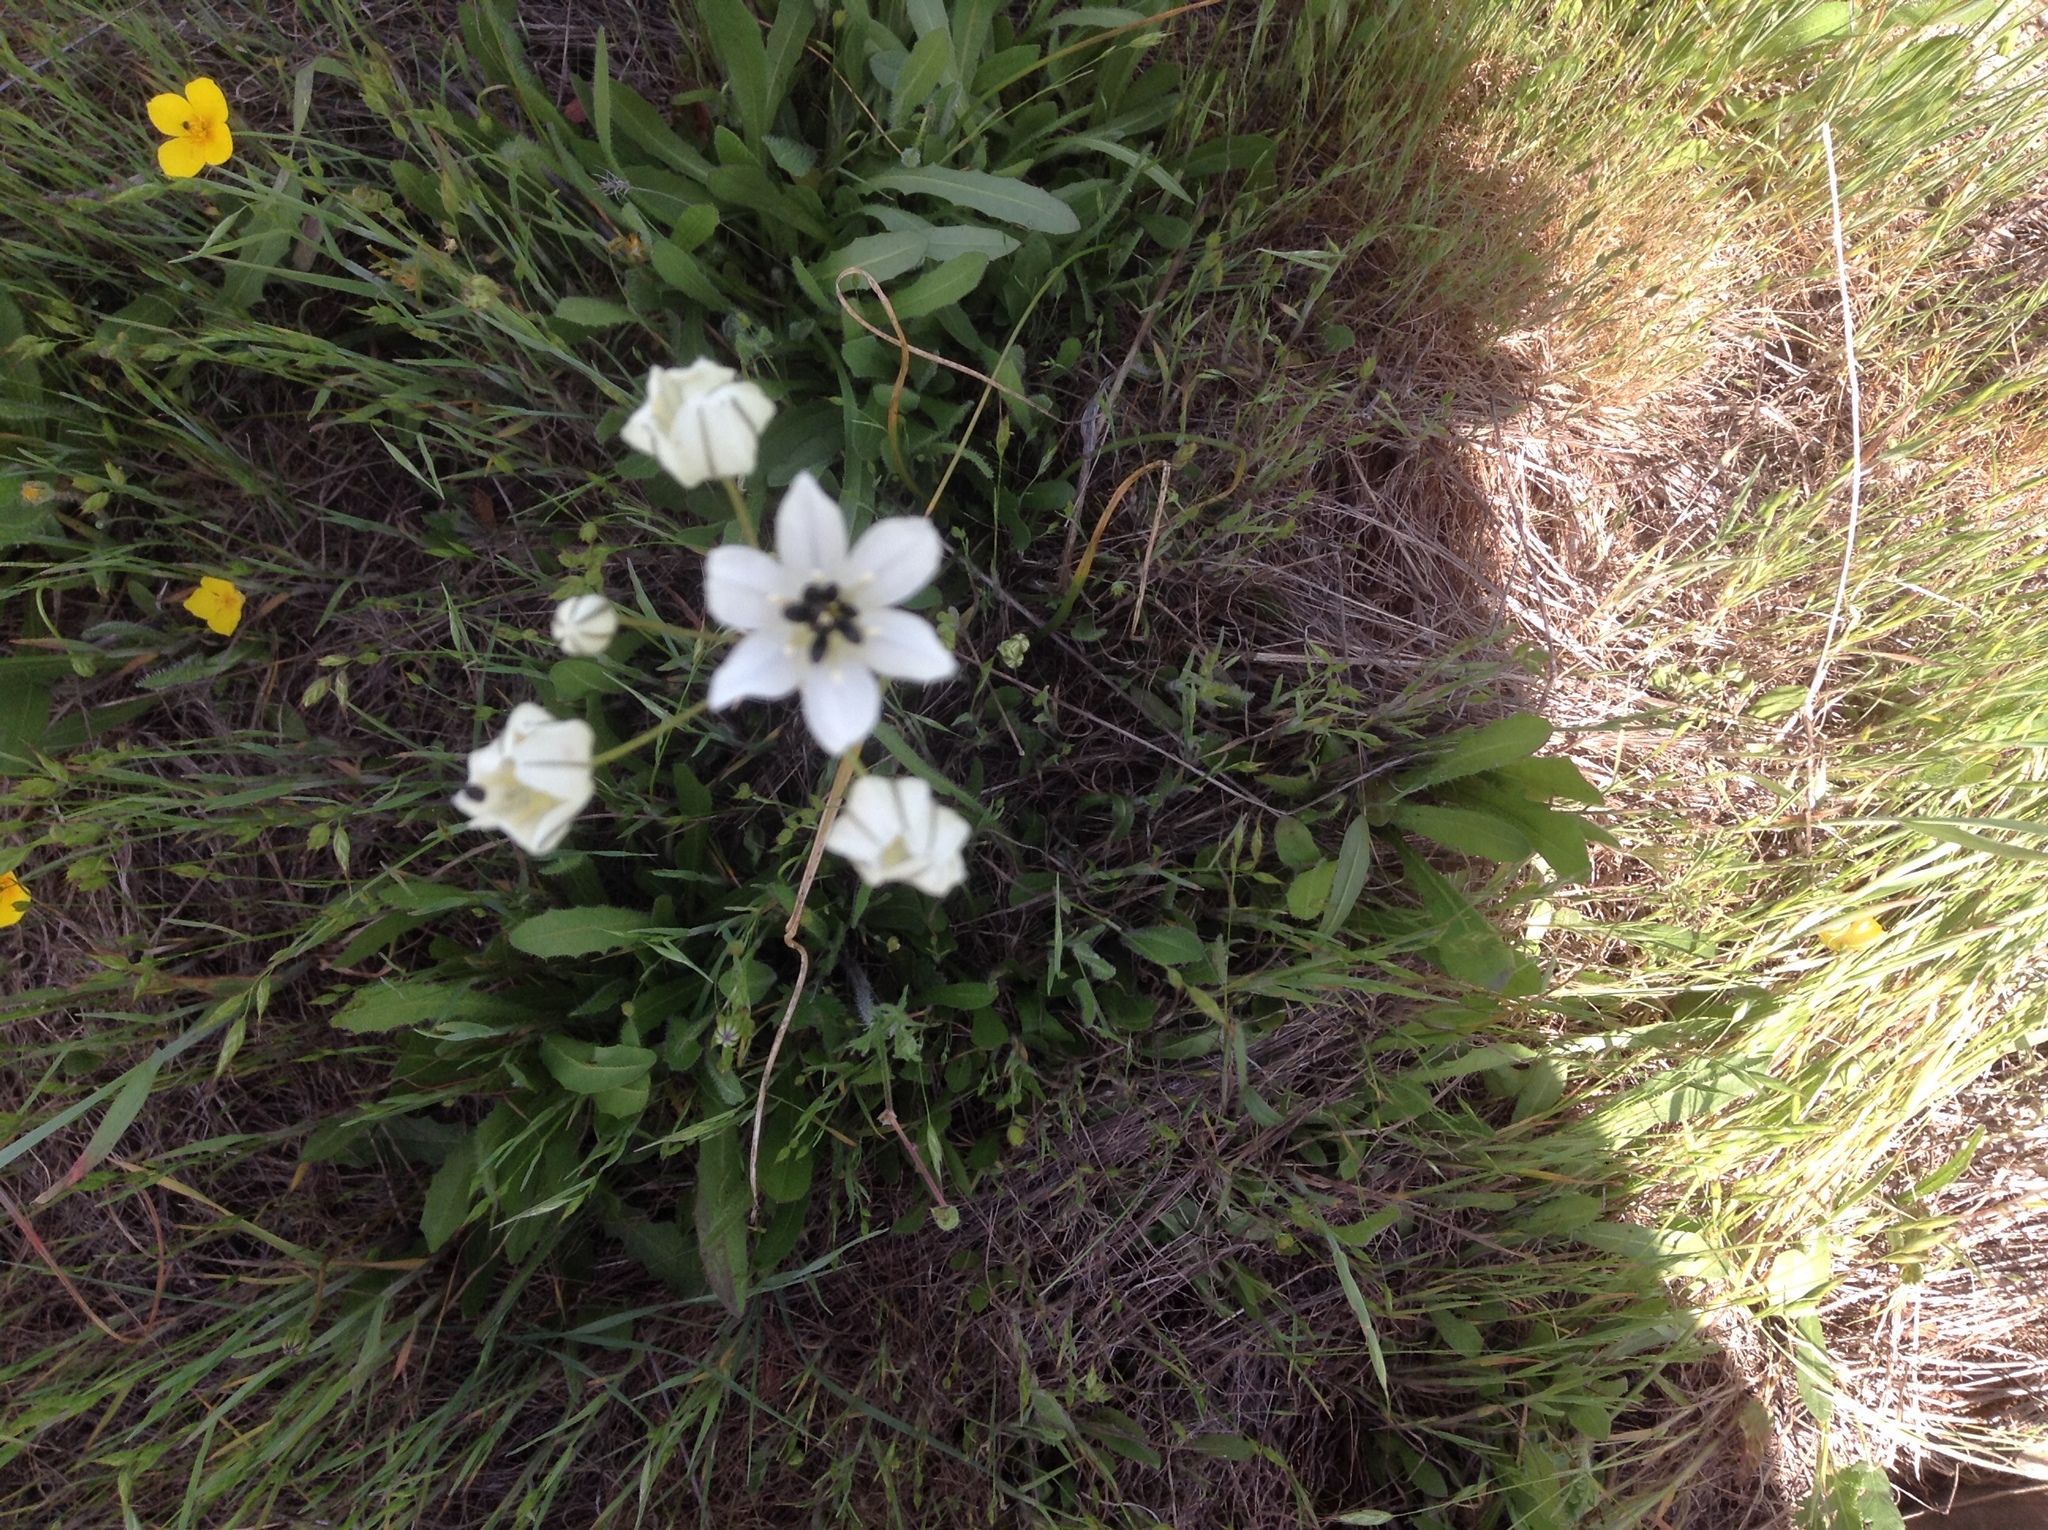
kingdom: Plantae
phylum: Tracheophyta
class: Liliopsida
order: Asparagales
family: Asparagaceae
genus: Triteleia
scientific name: Triteleia hyacinthina
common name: White brodiaea
